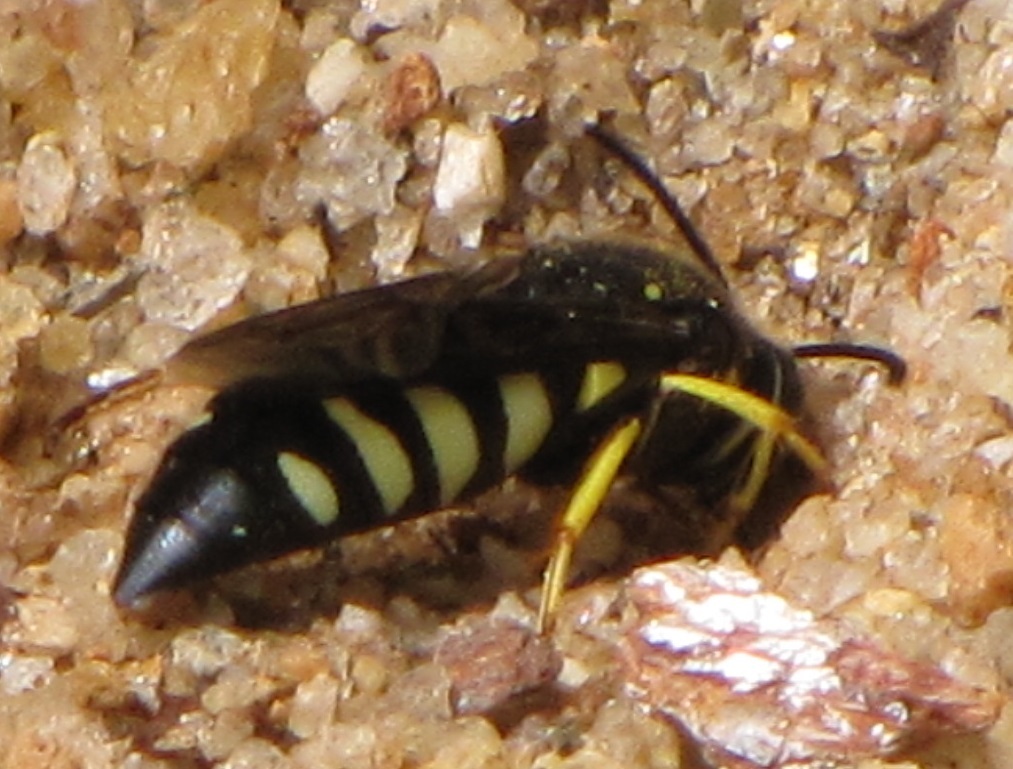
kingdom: Animalia
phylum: Arthropoda
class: Insecta
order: Hymenoptera
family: Crabronidae
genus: Bicyrtes
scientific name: Bicyrtes quadrifasciatus
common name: Four-banded stink bug hunter wasp
